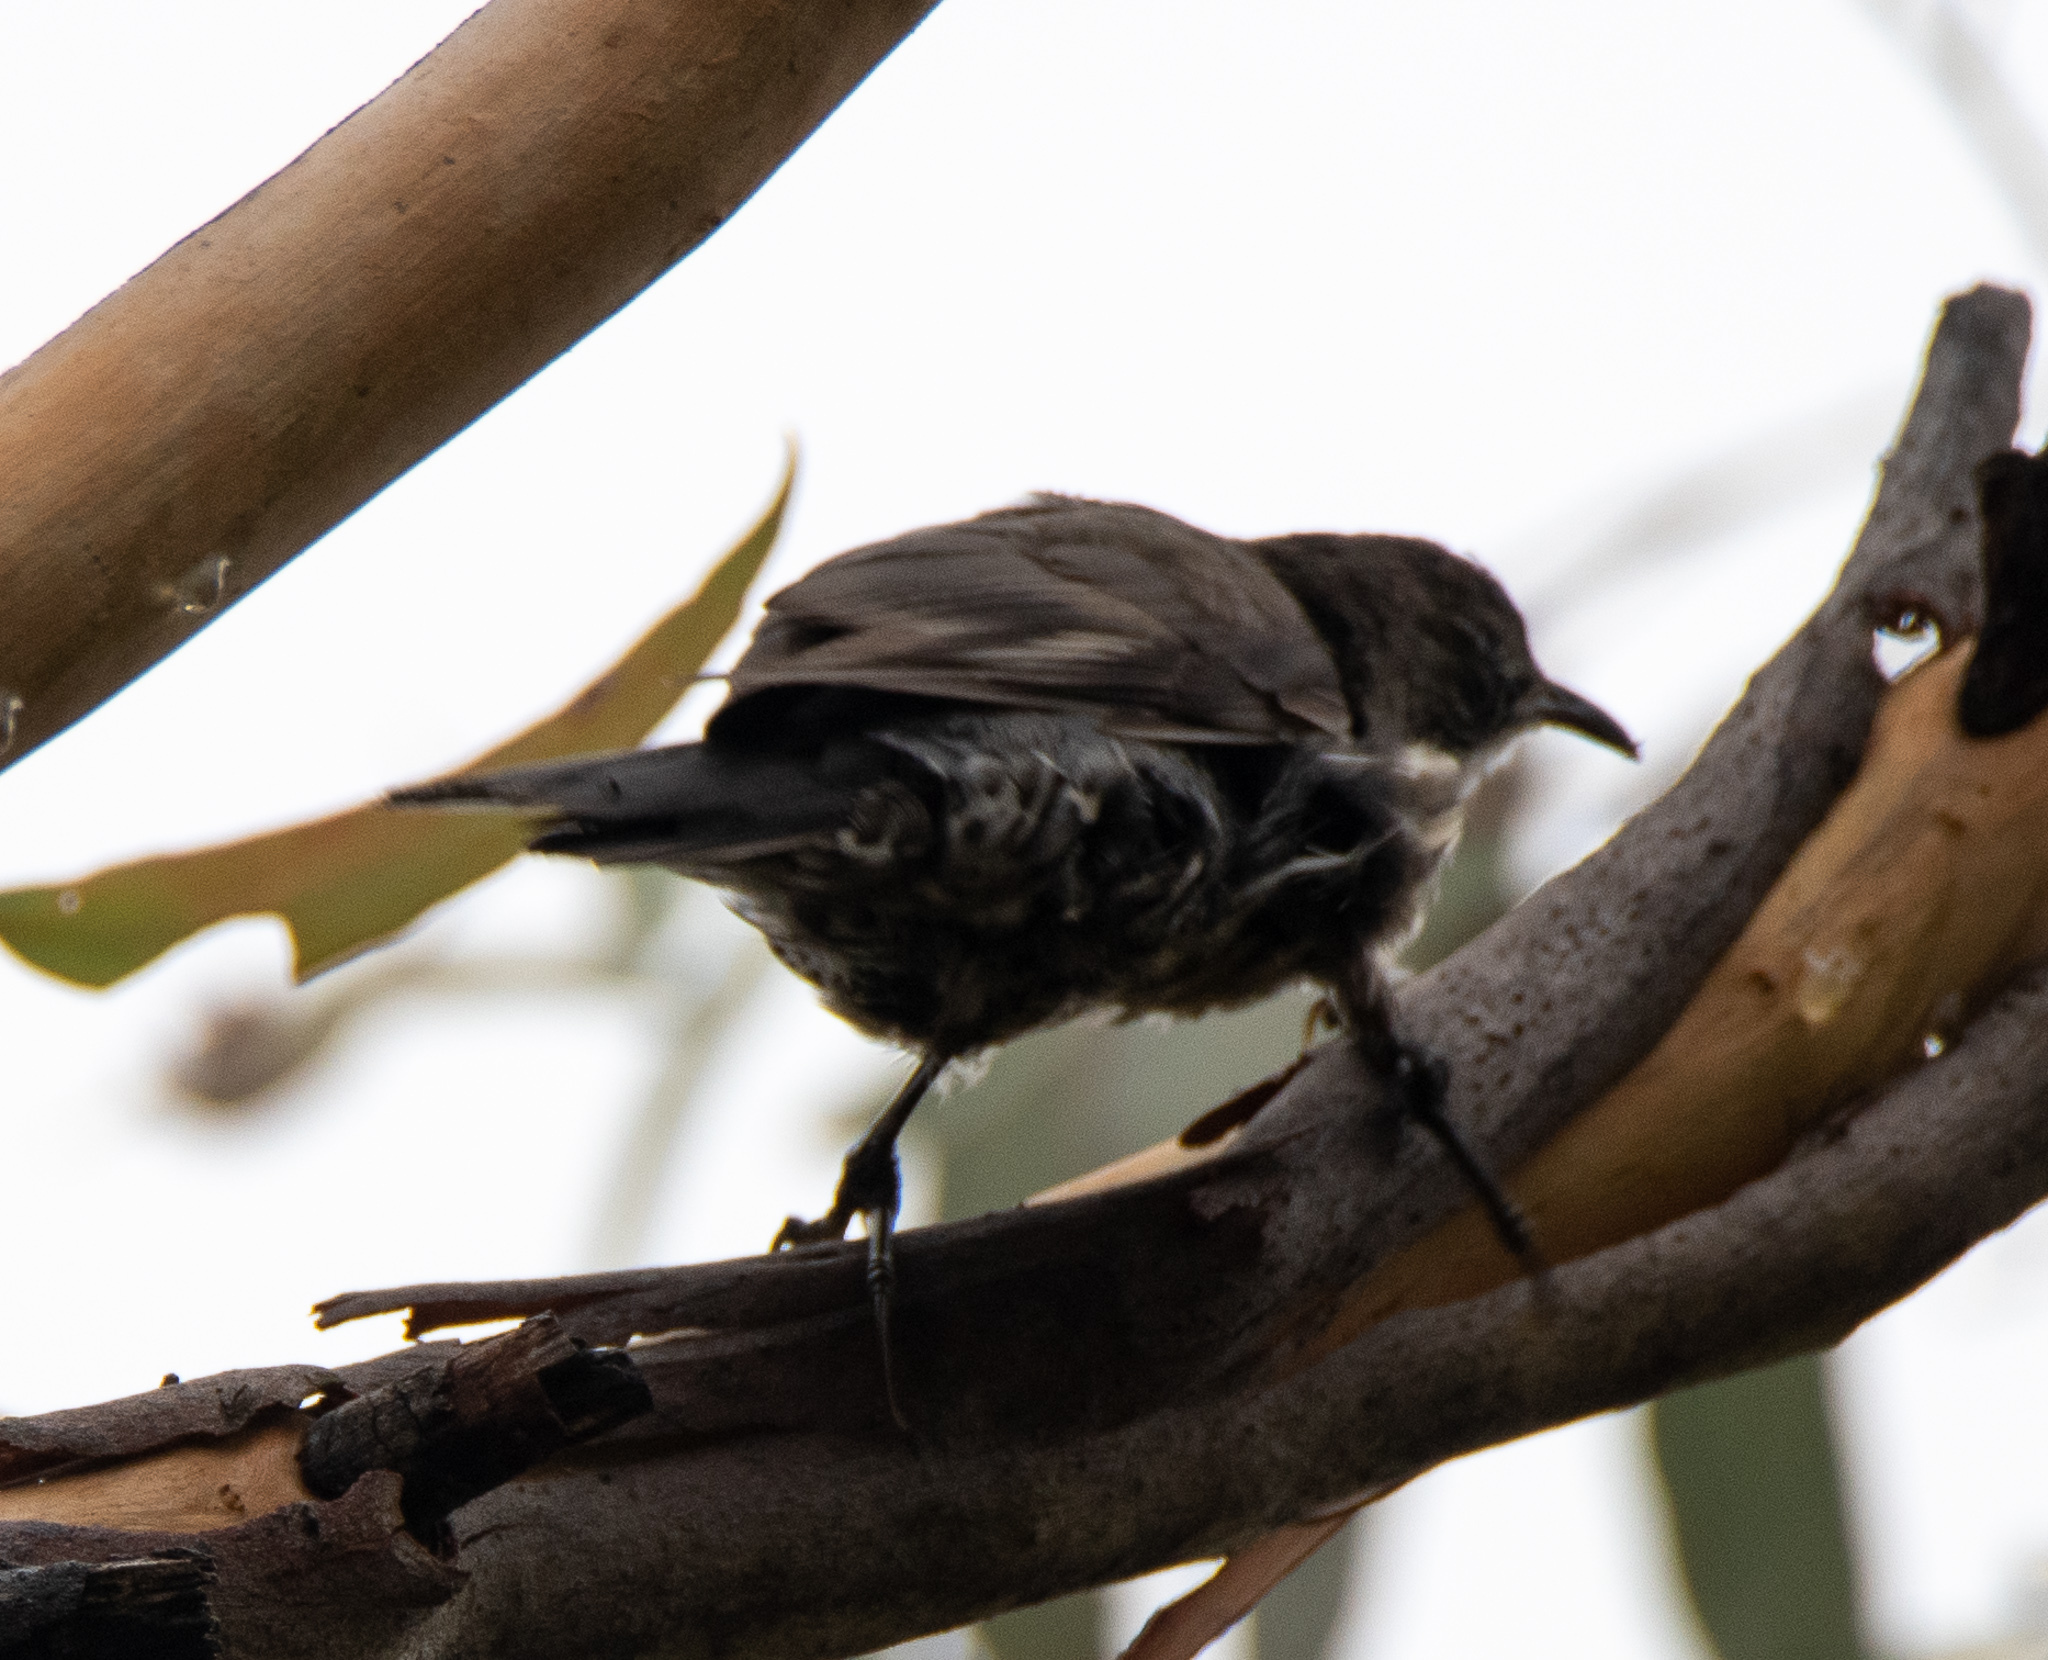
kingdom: Animalia
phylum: Chordata
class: Aves
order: Passeriformes
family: Climacteridae
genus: Cormobates
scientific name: Cormobates leucophaea
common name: White-throated treecreeper
